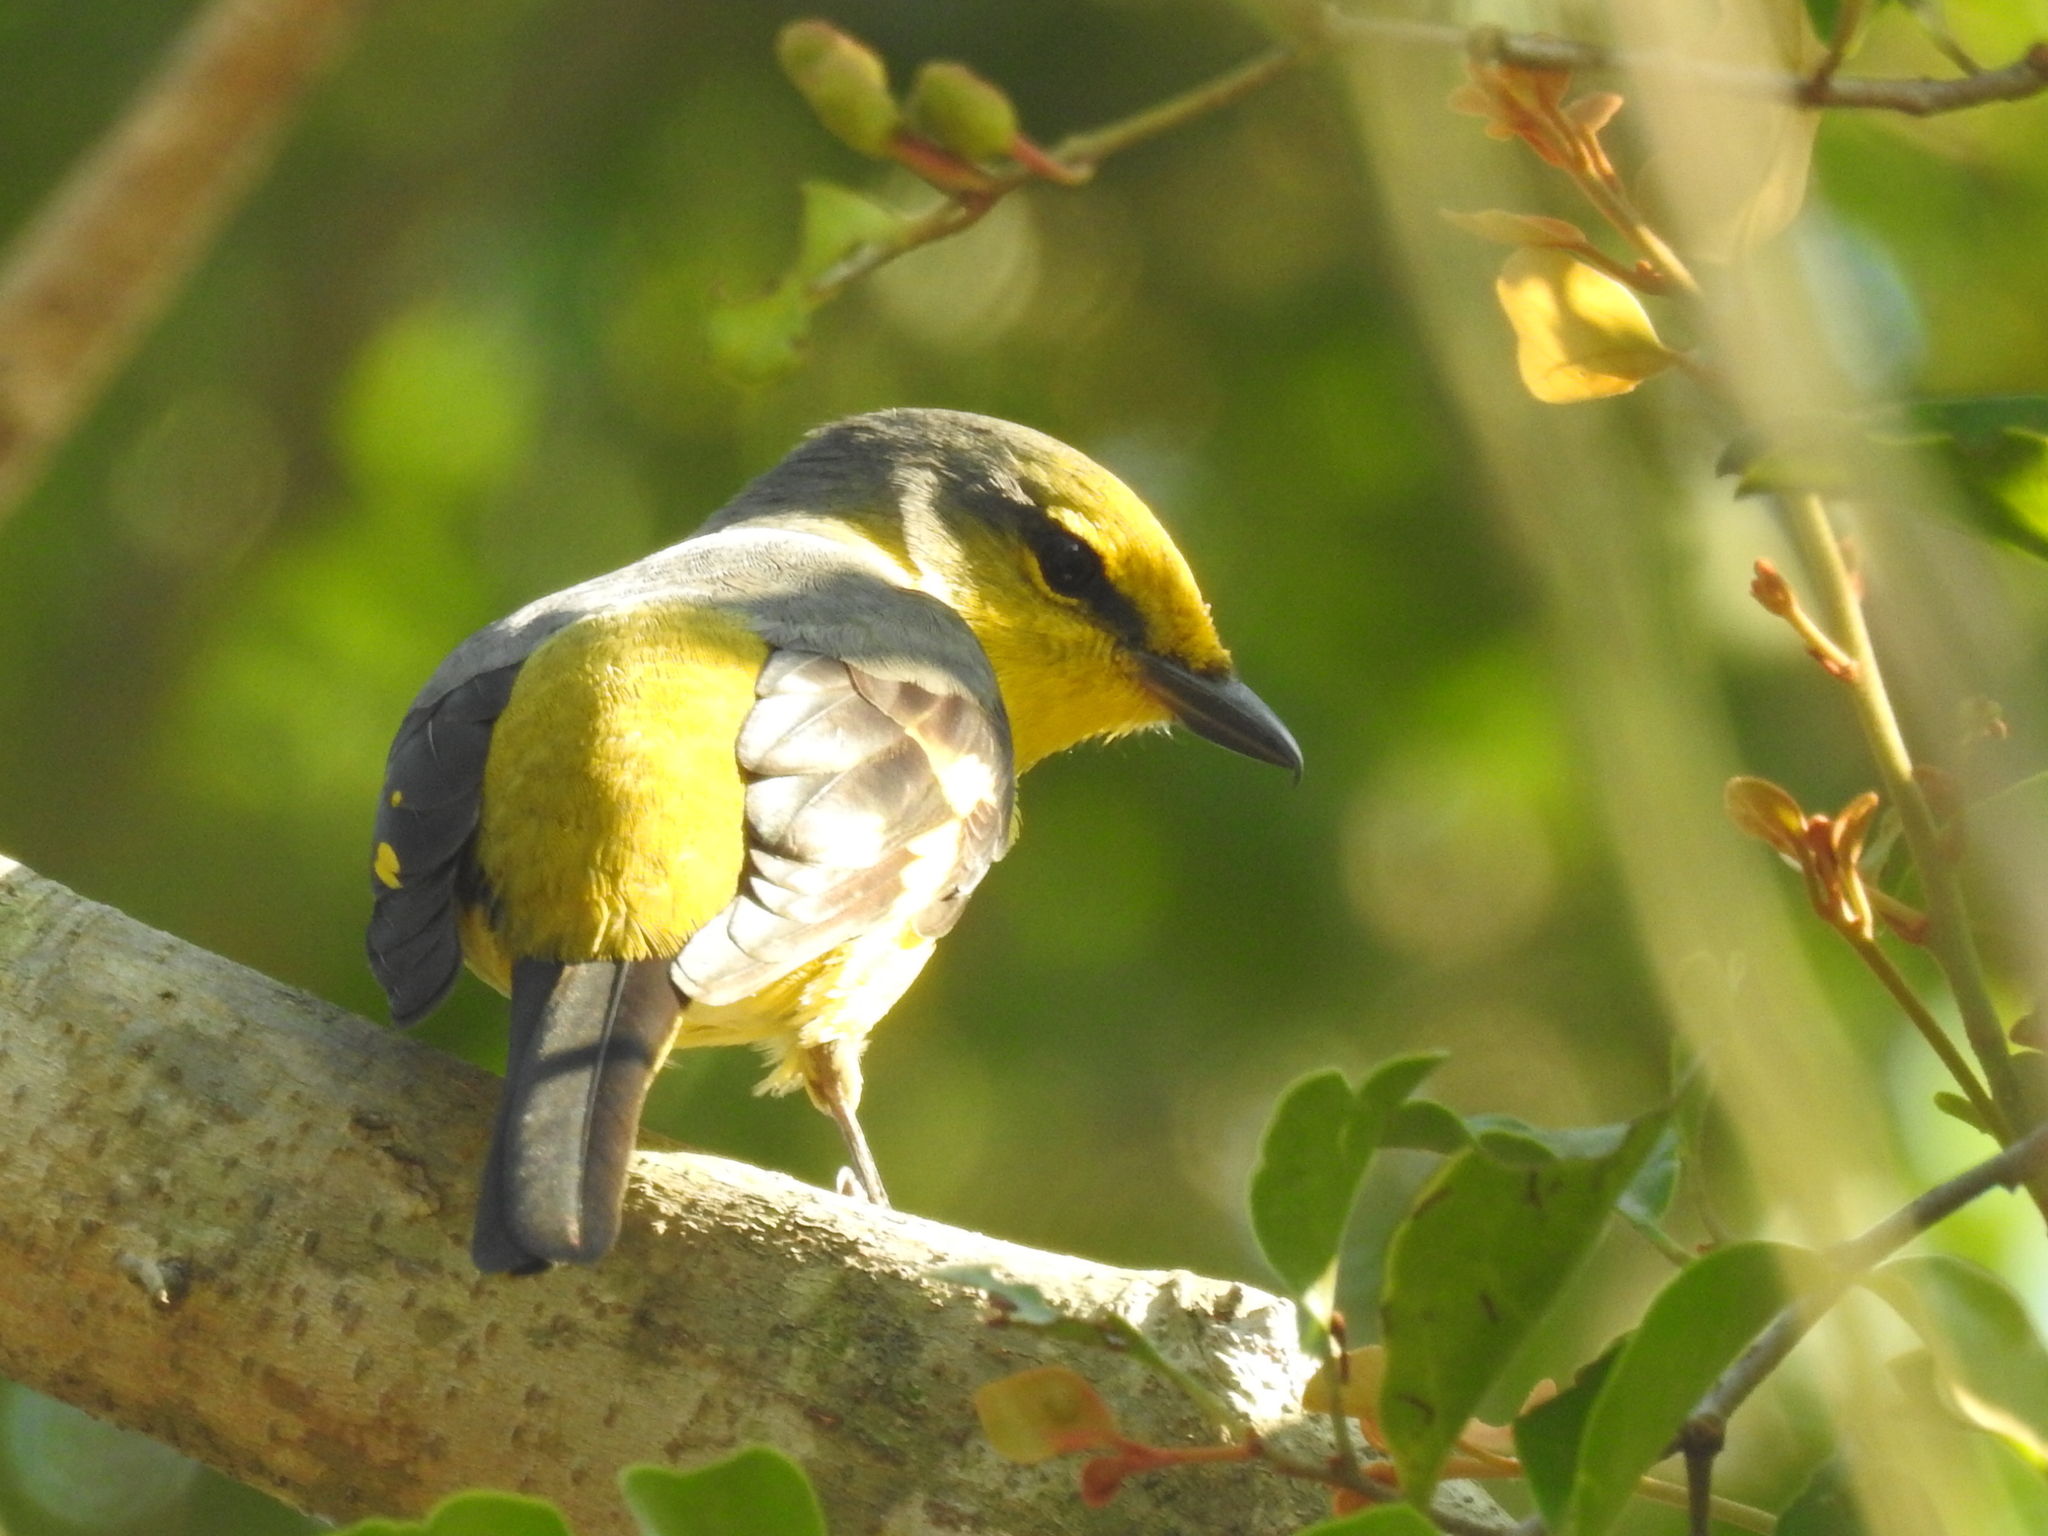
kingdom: Animalia
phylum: Chordata
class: Aves
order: Passeriformes
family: Campephagidae
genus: Pericrocotus
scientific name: Pericrocotus speciosus
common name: Scarlet minivet
